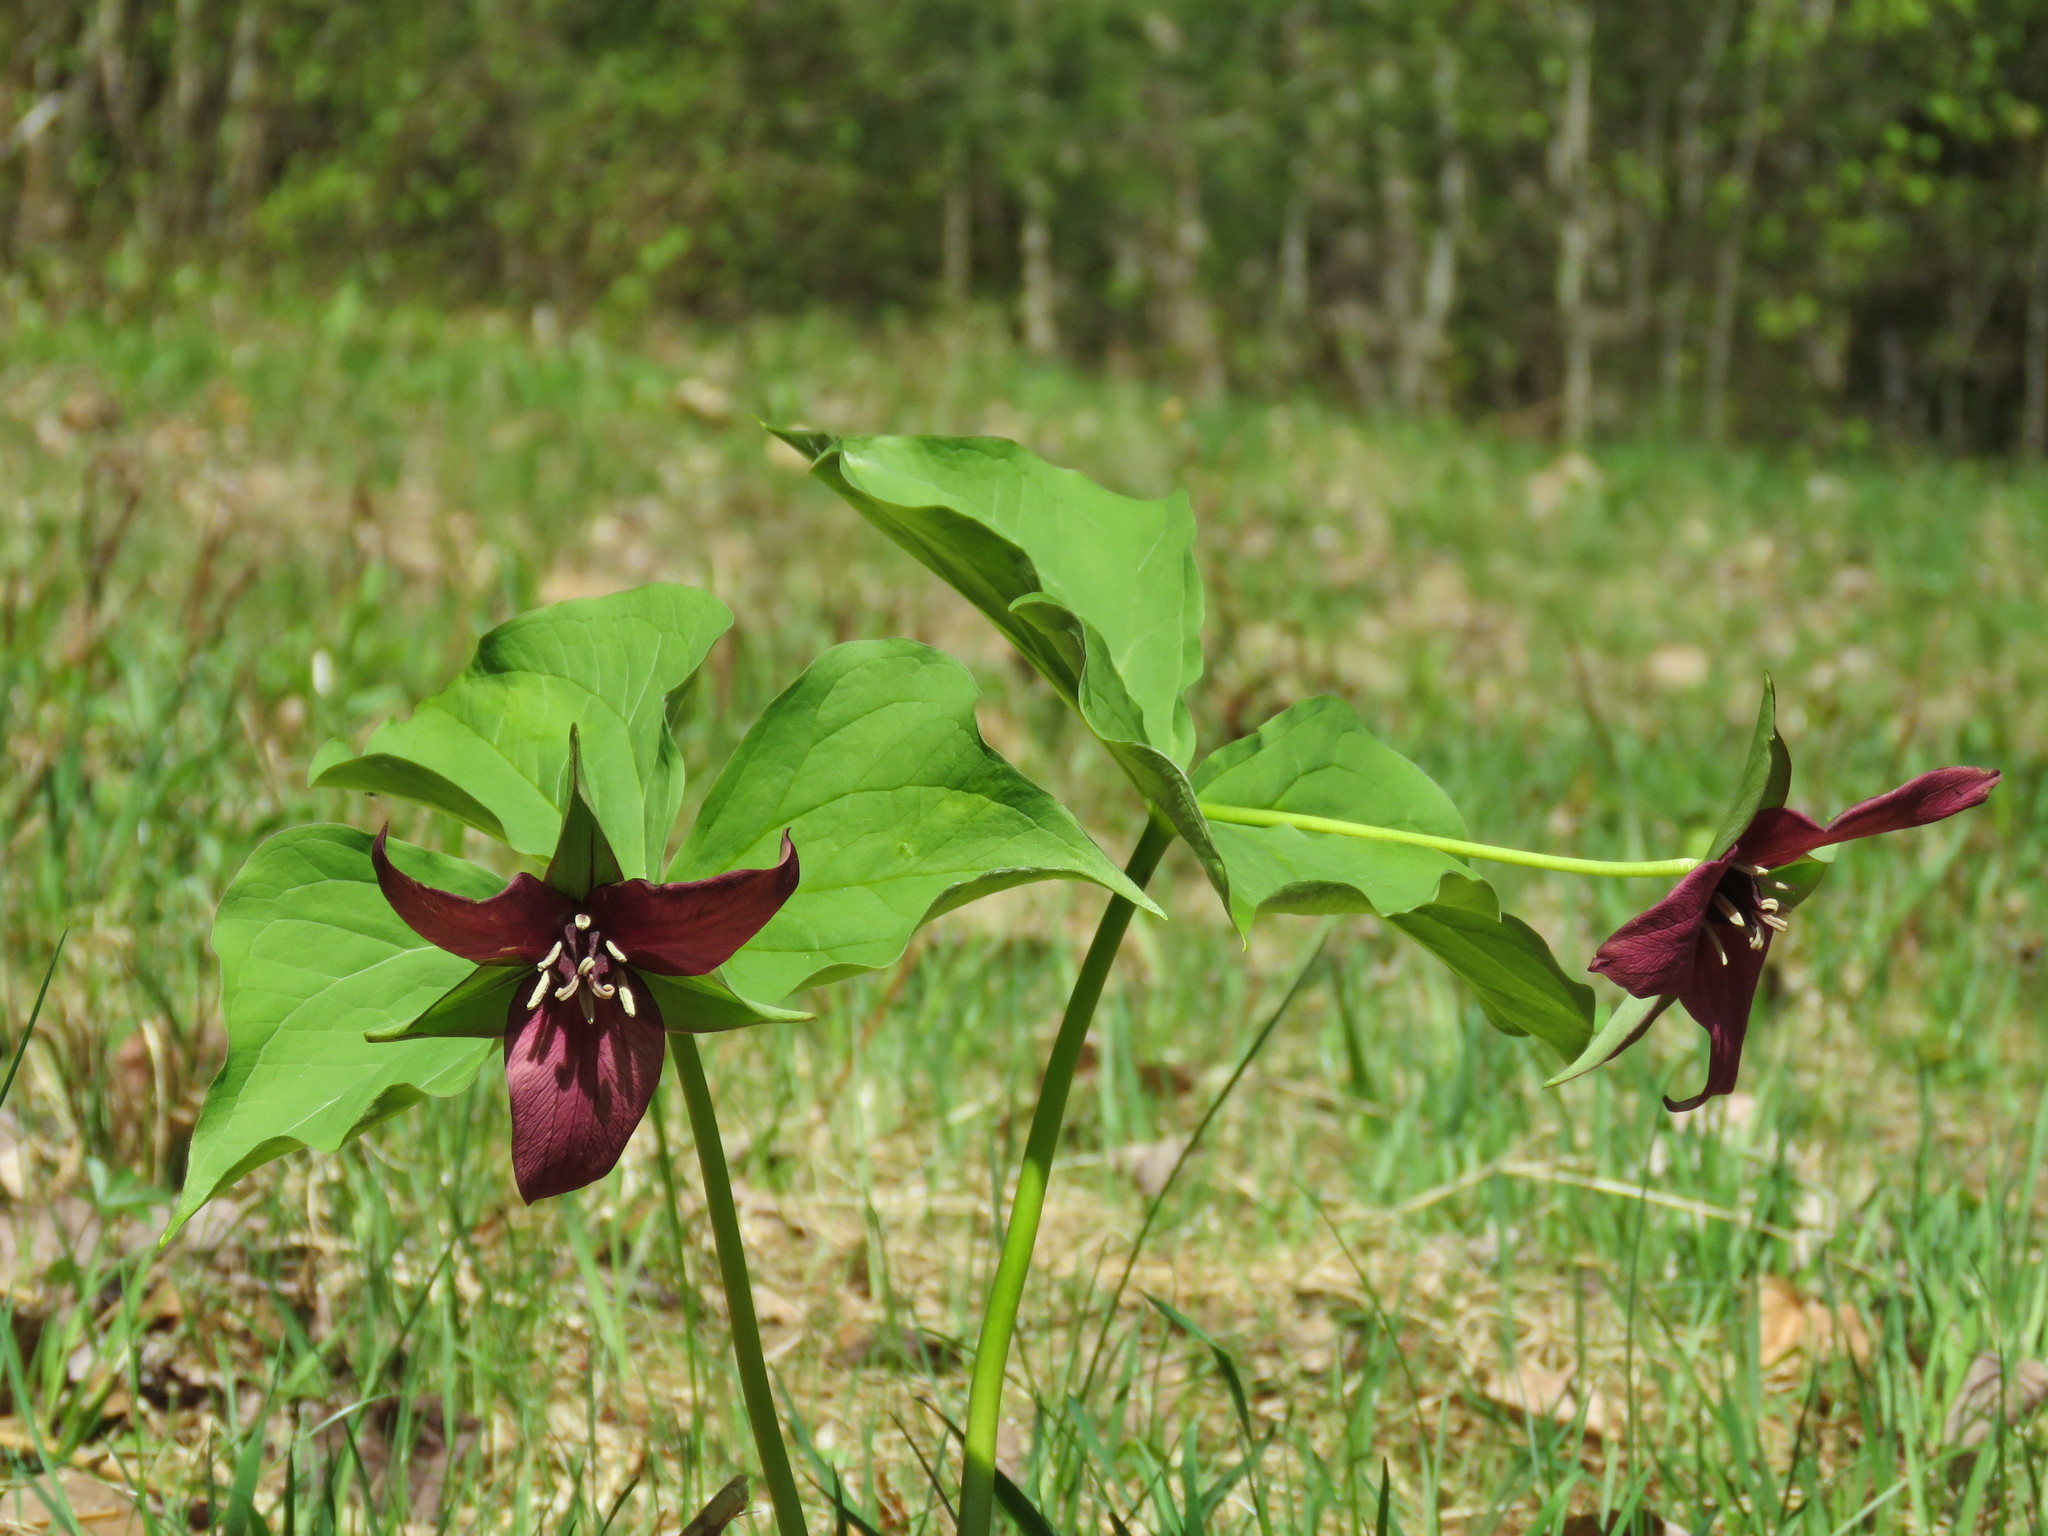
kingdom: Plantae
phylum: Tracheophyta
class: Liliopsida
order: Liliales
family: Melanthiaceae
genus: Trillium
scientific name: Trillium erectum
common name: Purple trillium
